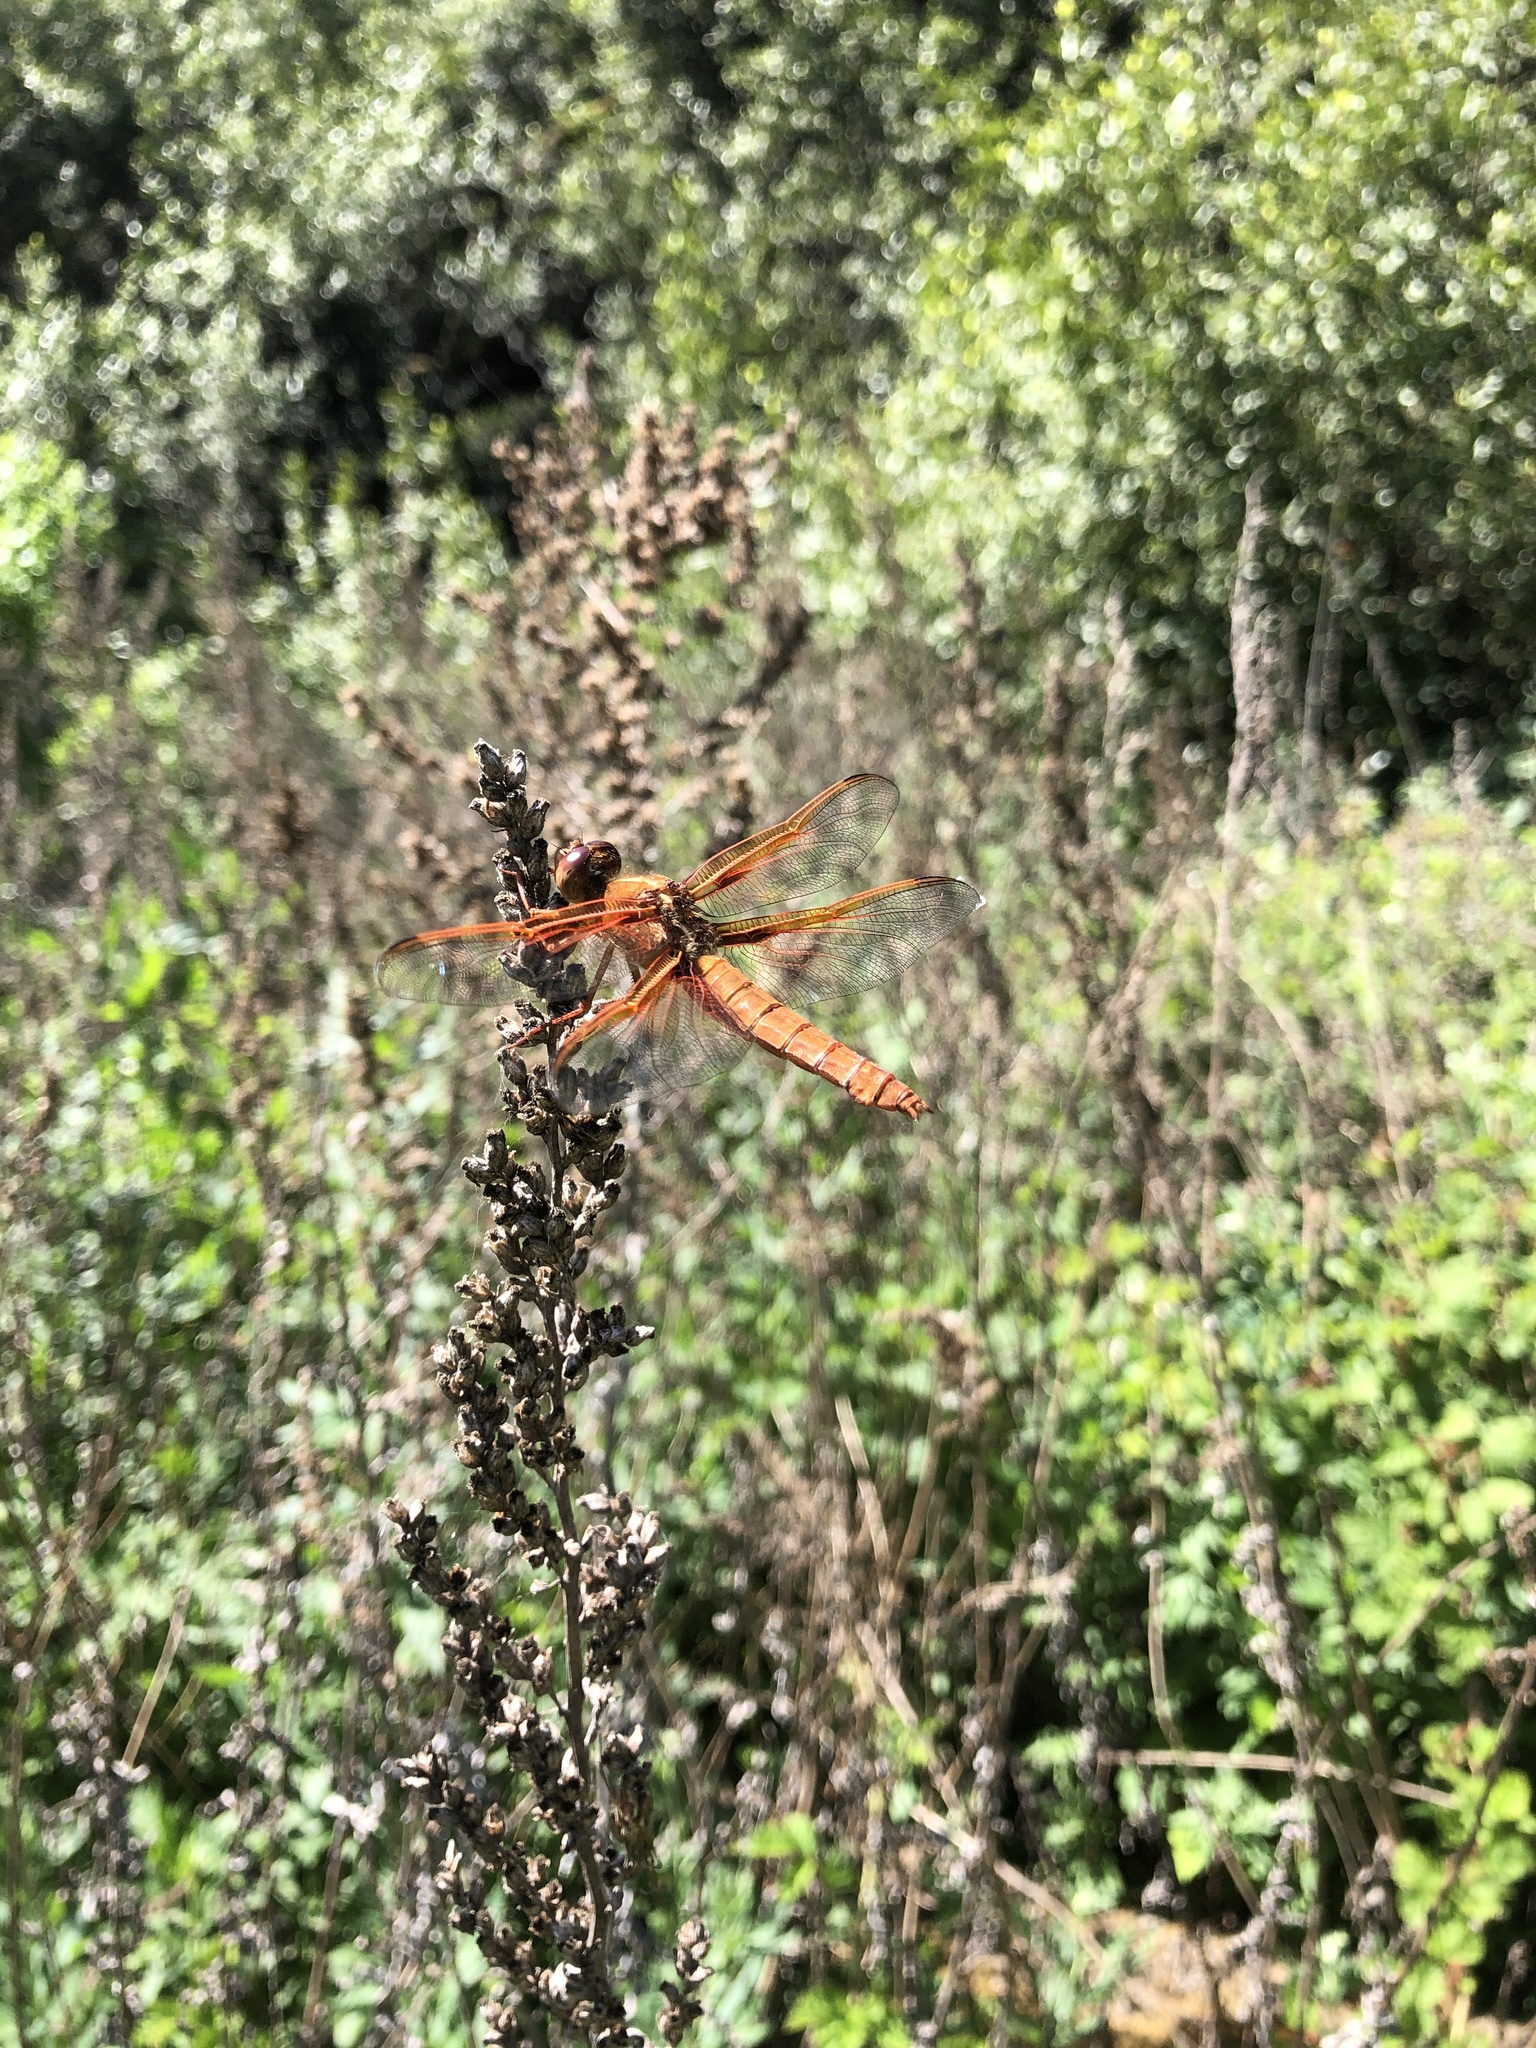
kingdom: Animalia
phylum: Arthropoda
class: Insecta
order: Odonata
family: Libellulidae
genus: Libellula
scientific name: Libellula saturata
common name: Flame skimmer
